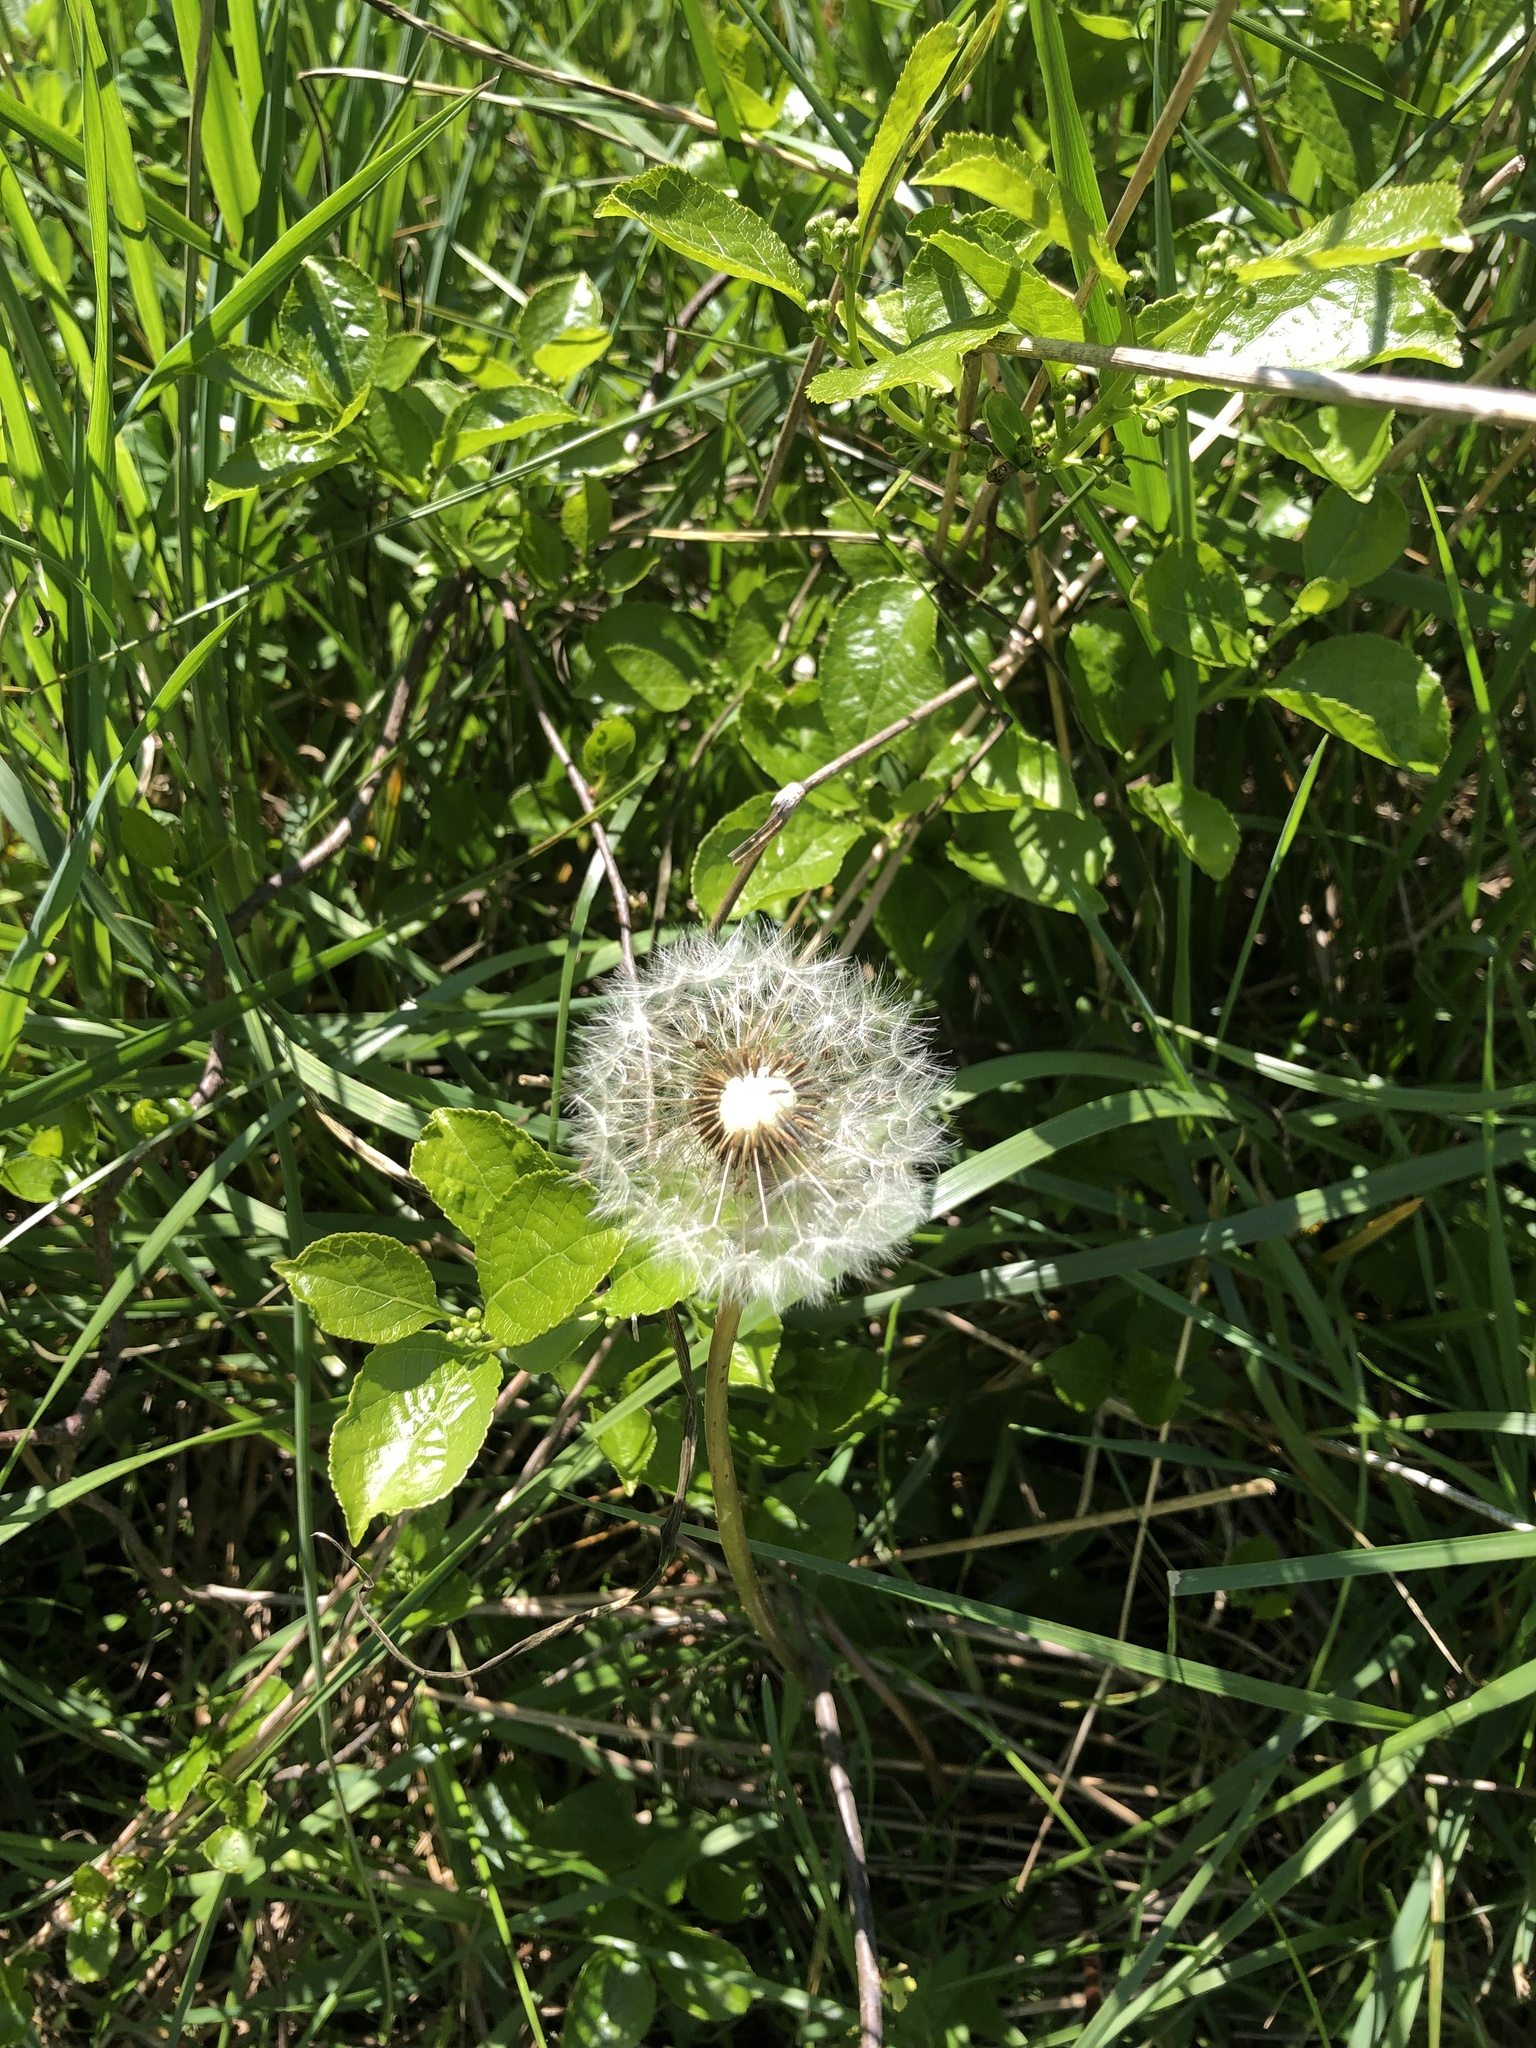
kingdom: Plantae
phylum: Tracheophyta
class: Magnoliopsida
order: Asterales
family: Asteraceae
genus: Taraxacum
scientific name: Taraxacum officinale
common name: Common dandelion
